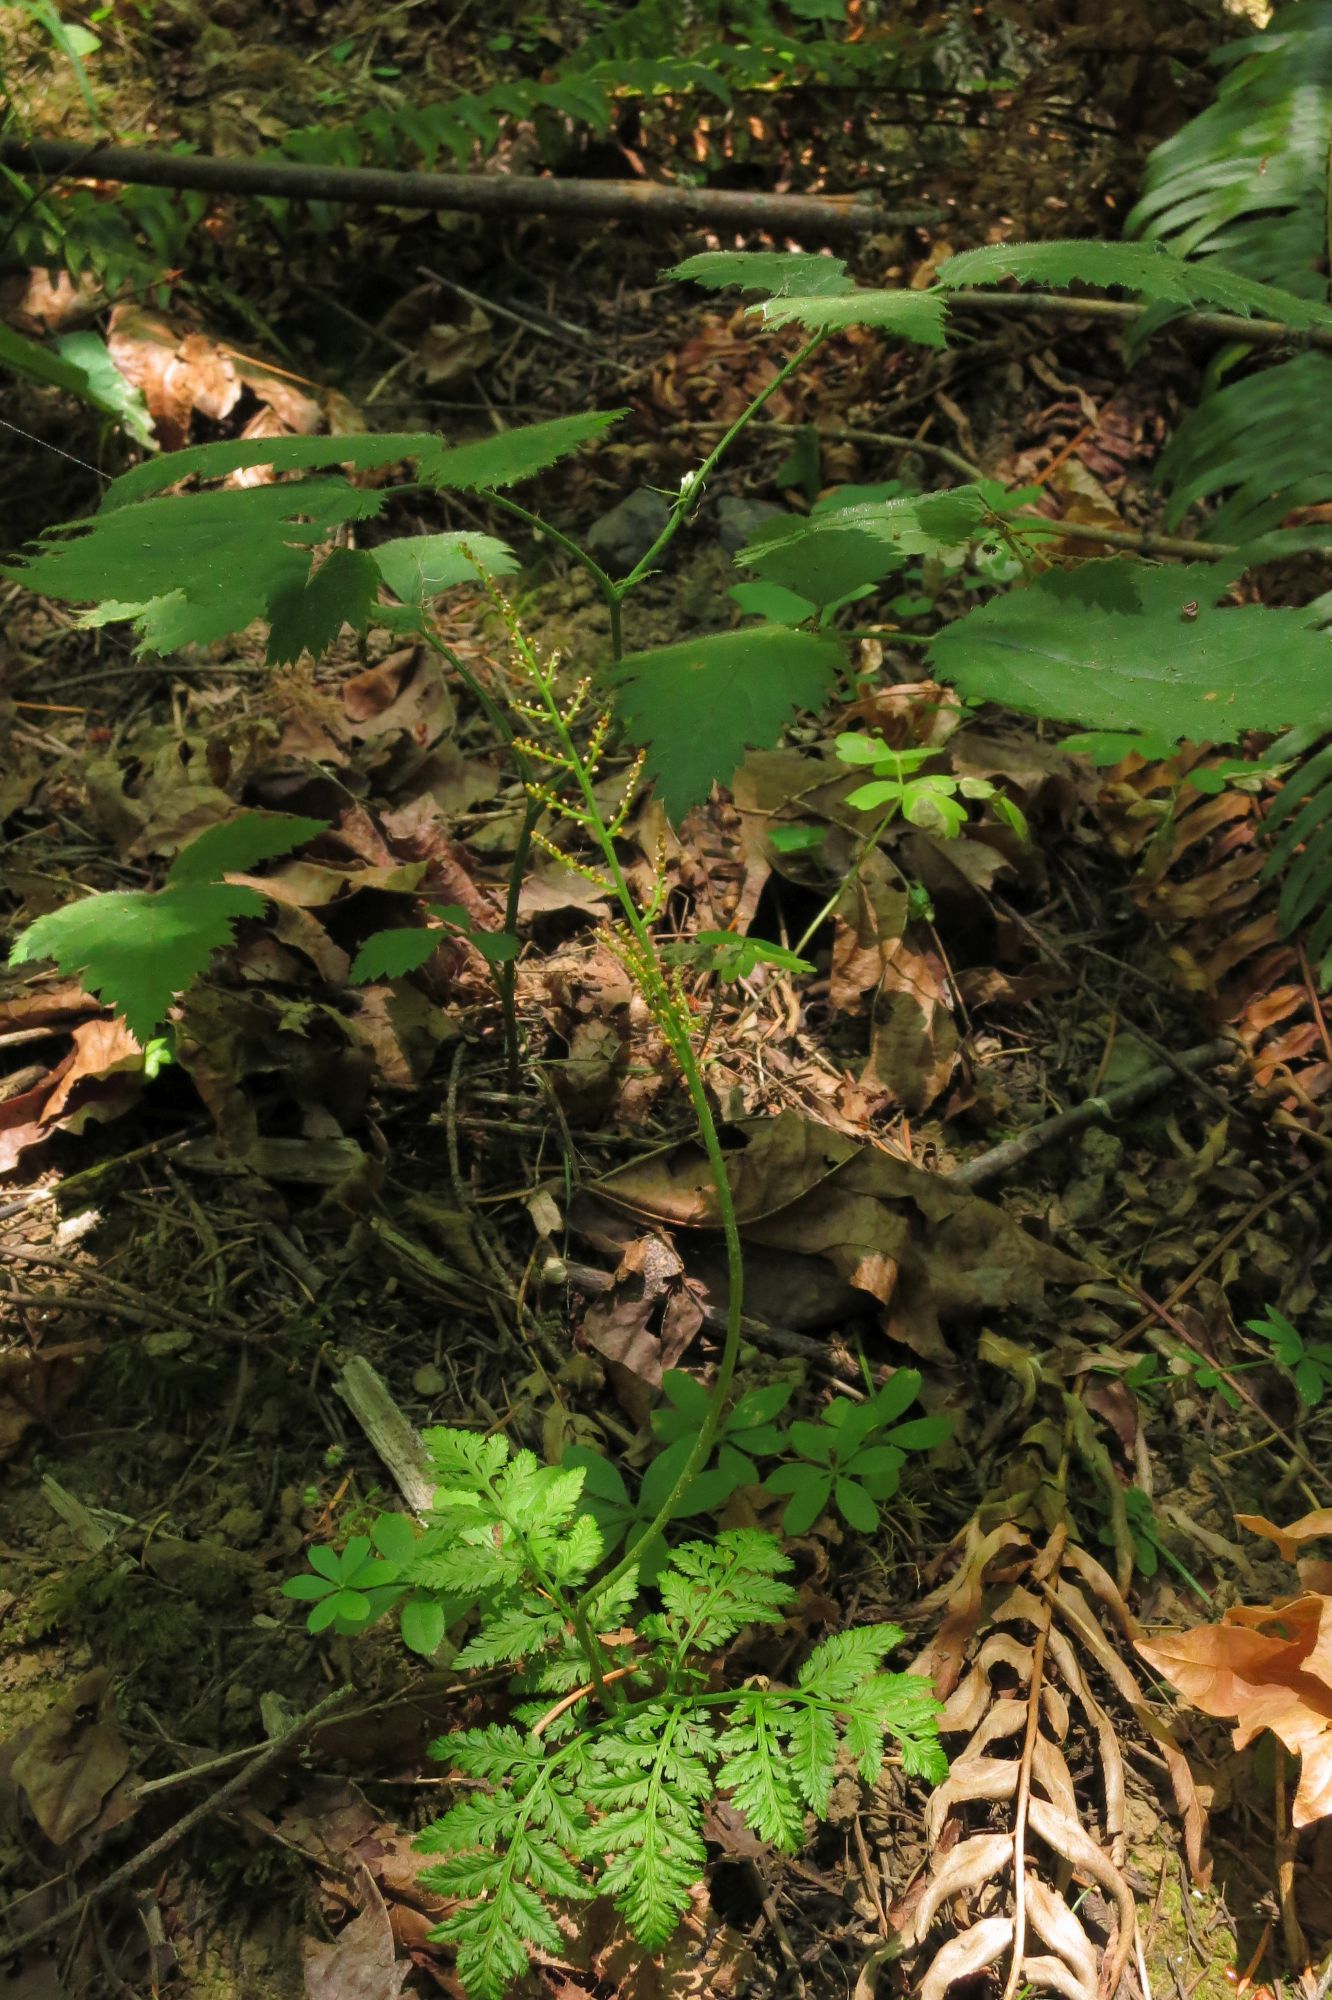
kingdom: Plantae
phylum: Tracheophyta
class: Polypodiopsida
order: Ophioglossales
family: Ophioglossaceae
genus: Botrypus
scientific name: Botrypus virginianus
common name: Common grapefern
